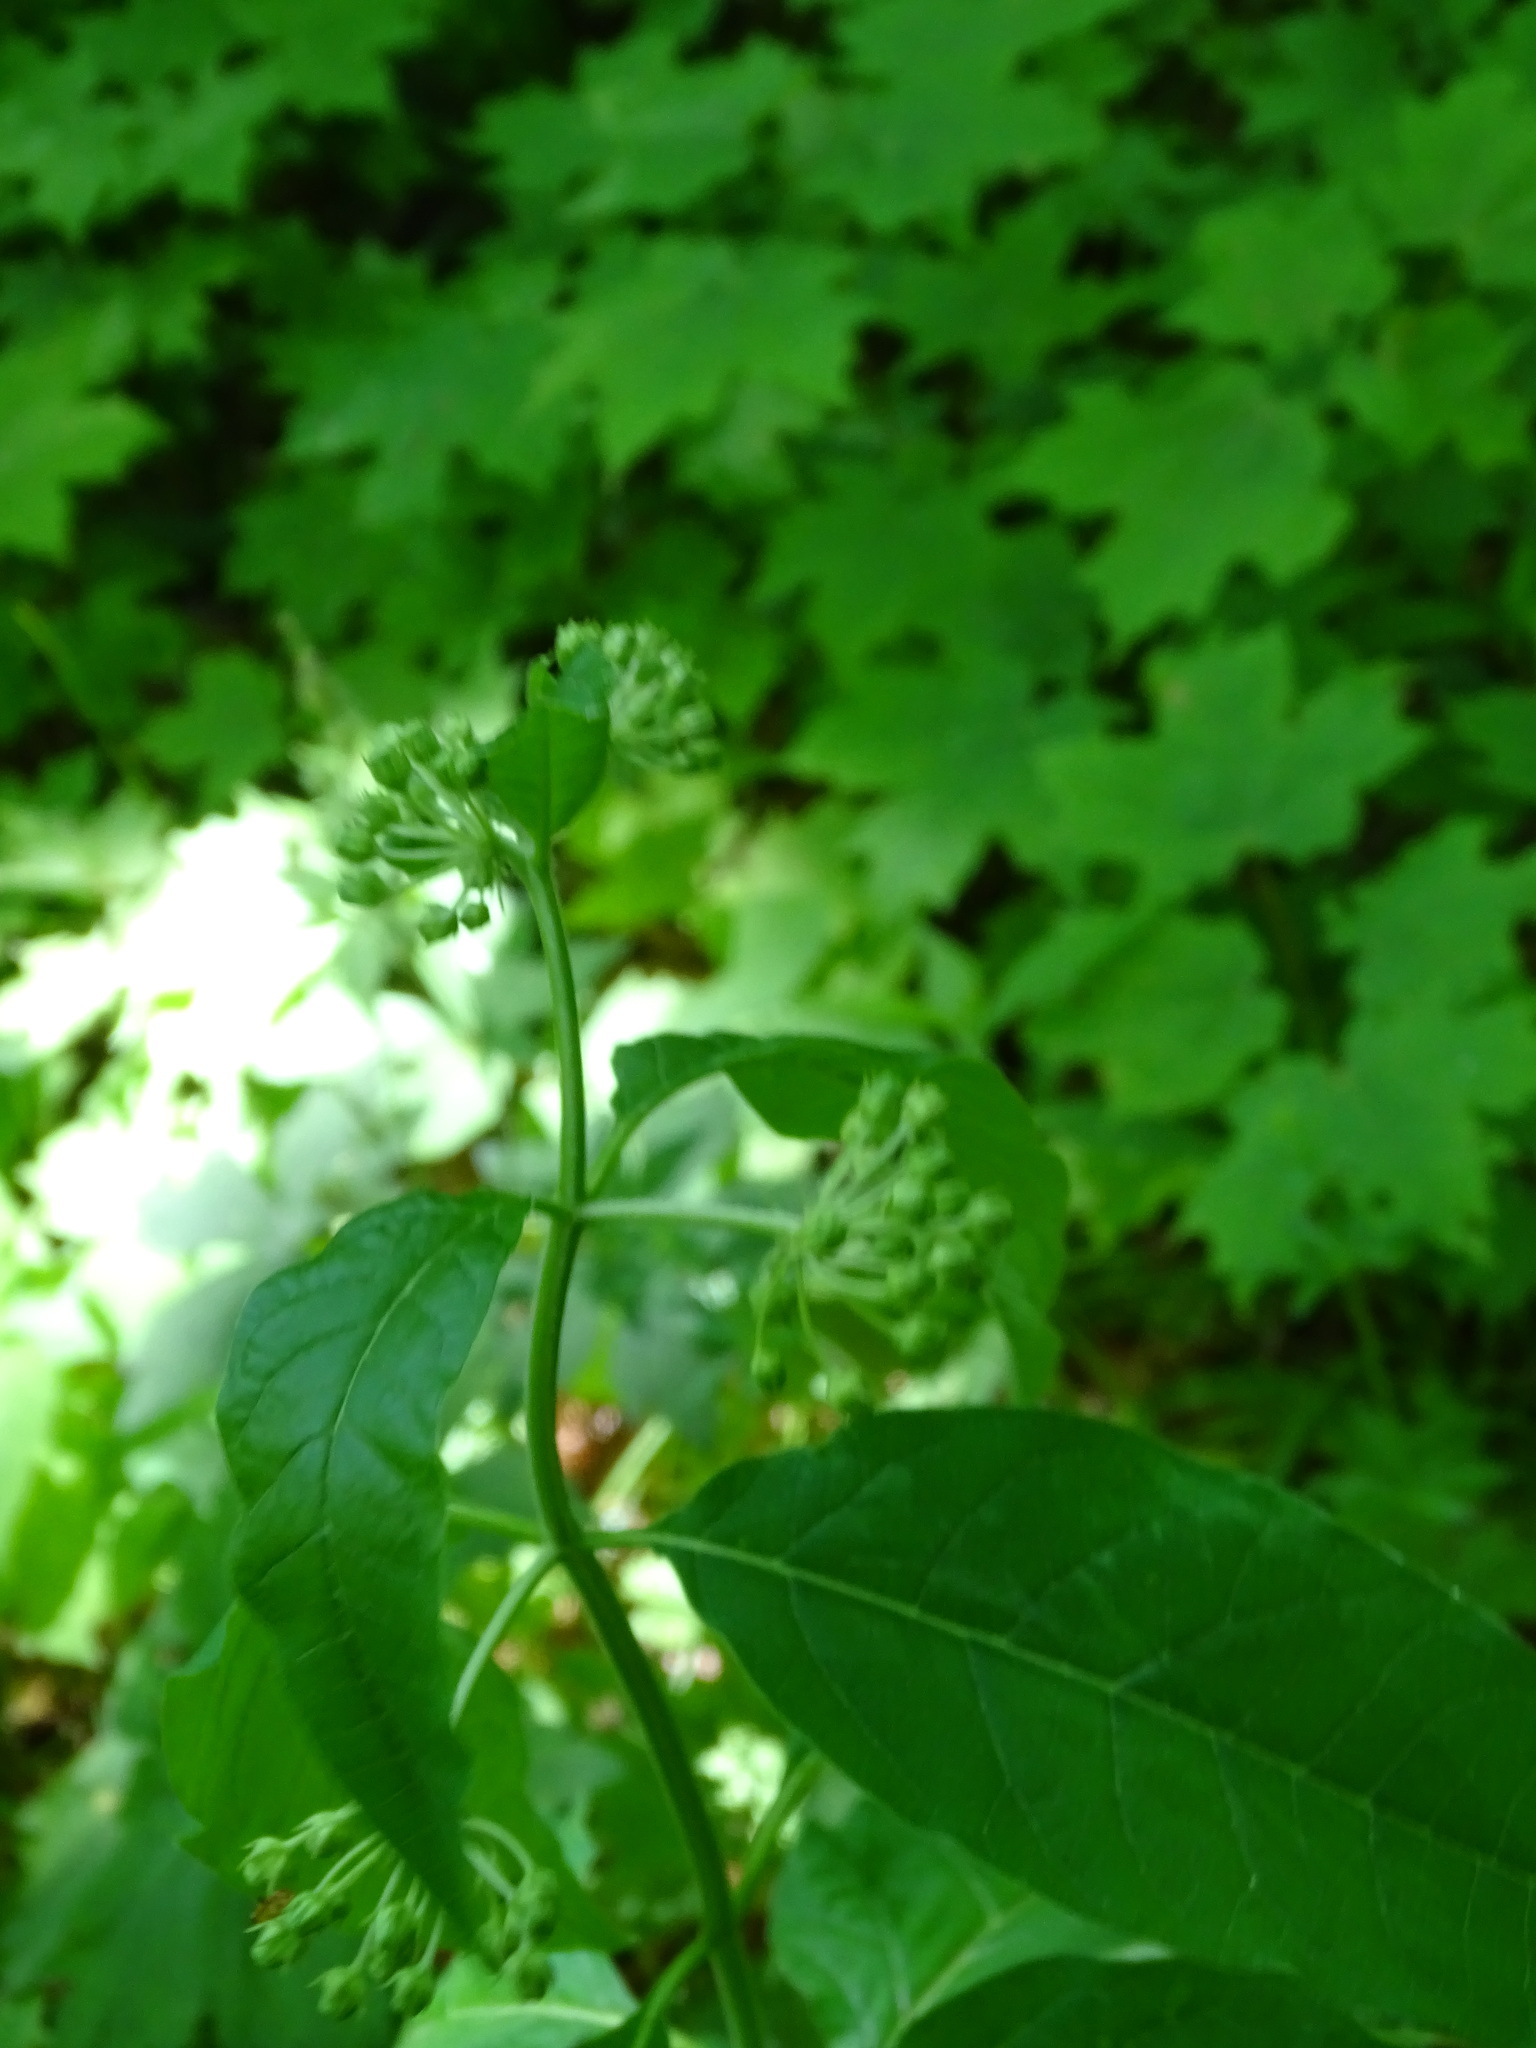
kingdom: Plantae
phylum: Tracheophyta
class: Magnoliopsida
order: Gentianales
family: Apocynaceae
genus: Asclepias
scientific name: Asclepias exaltata
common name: Poke milkweed
